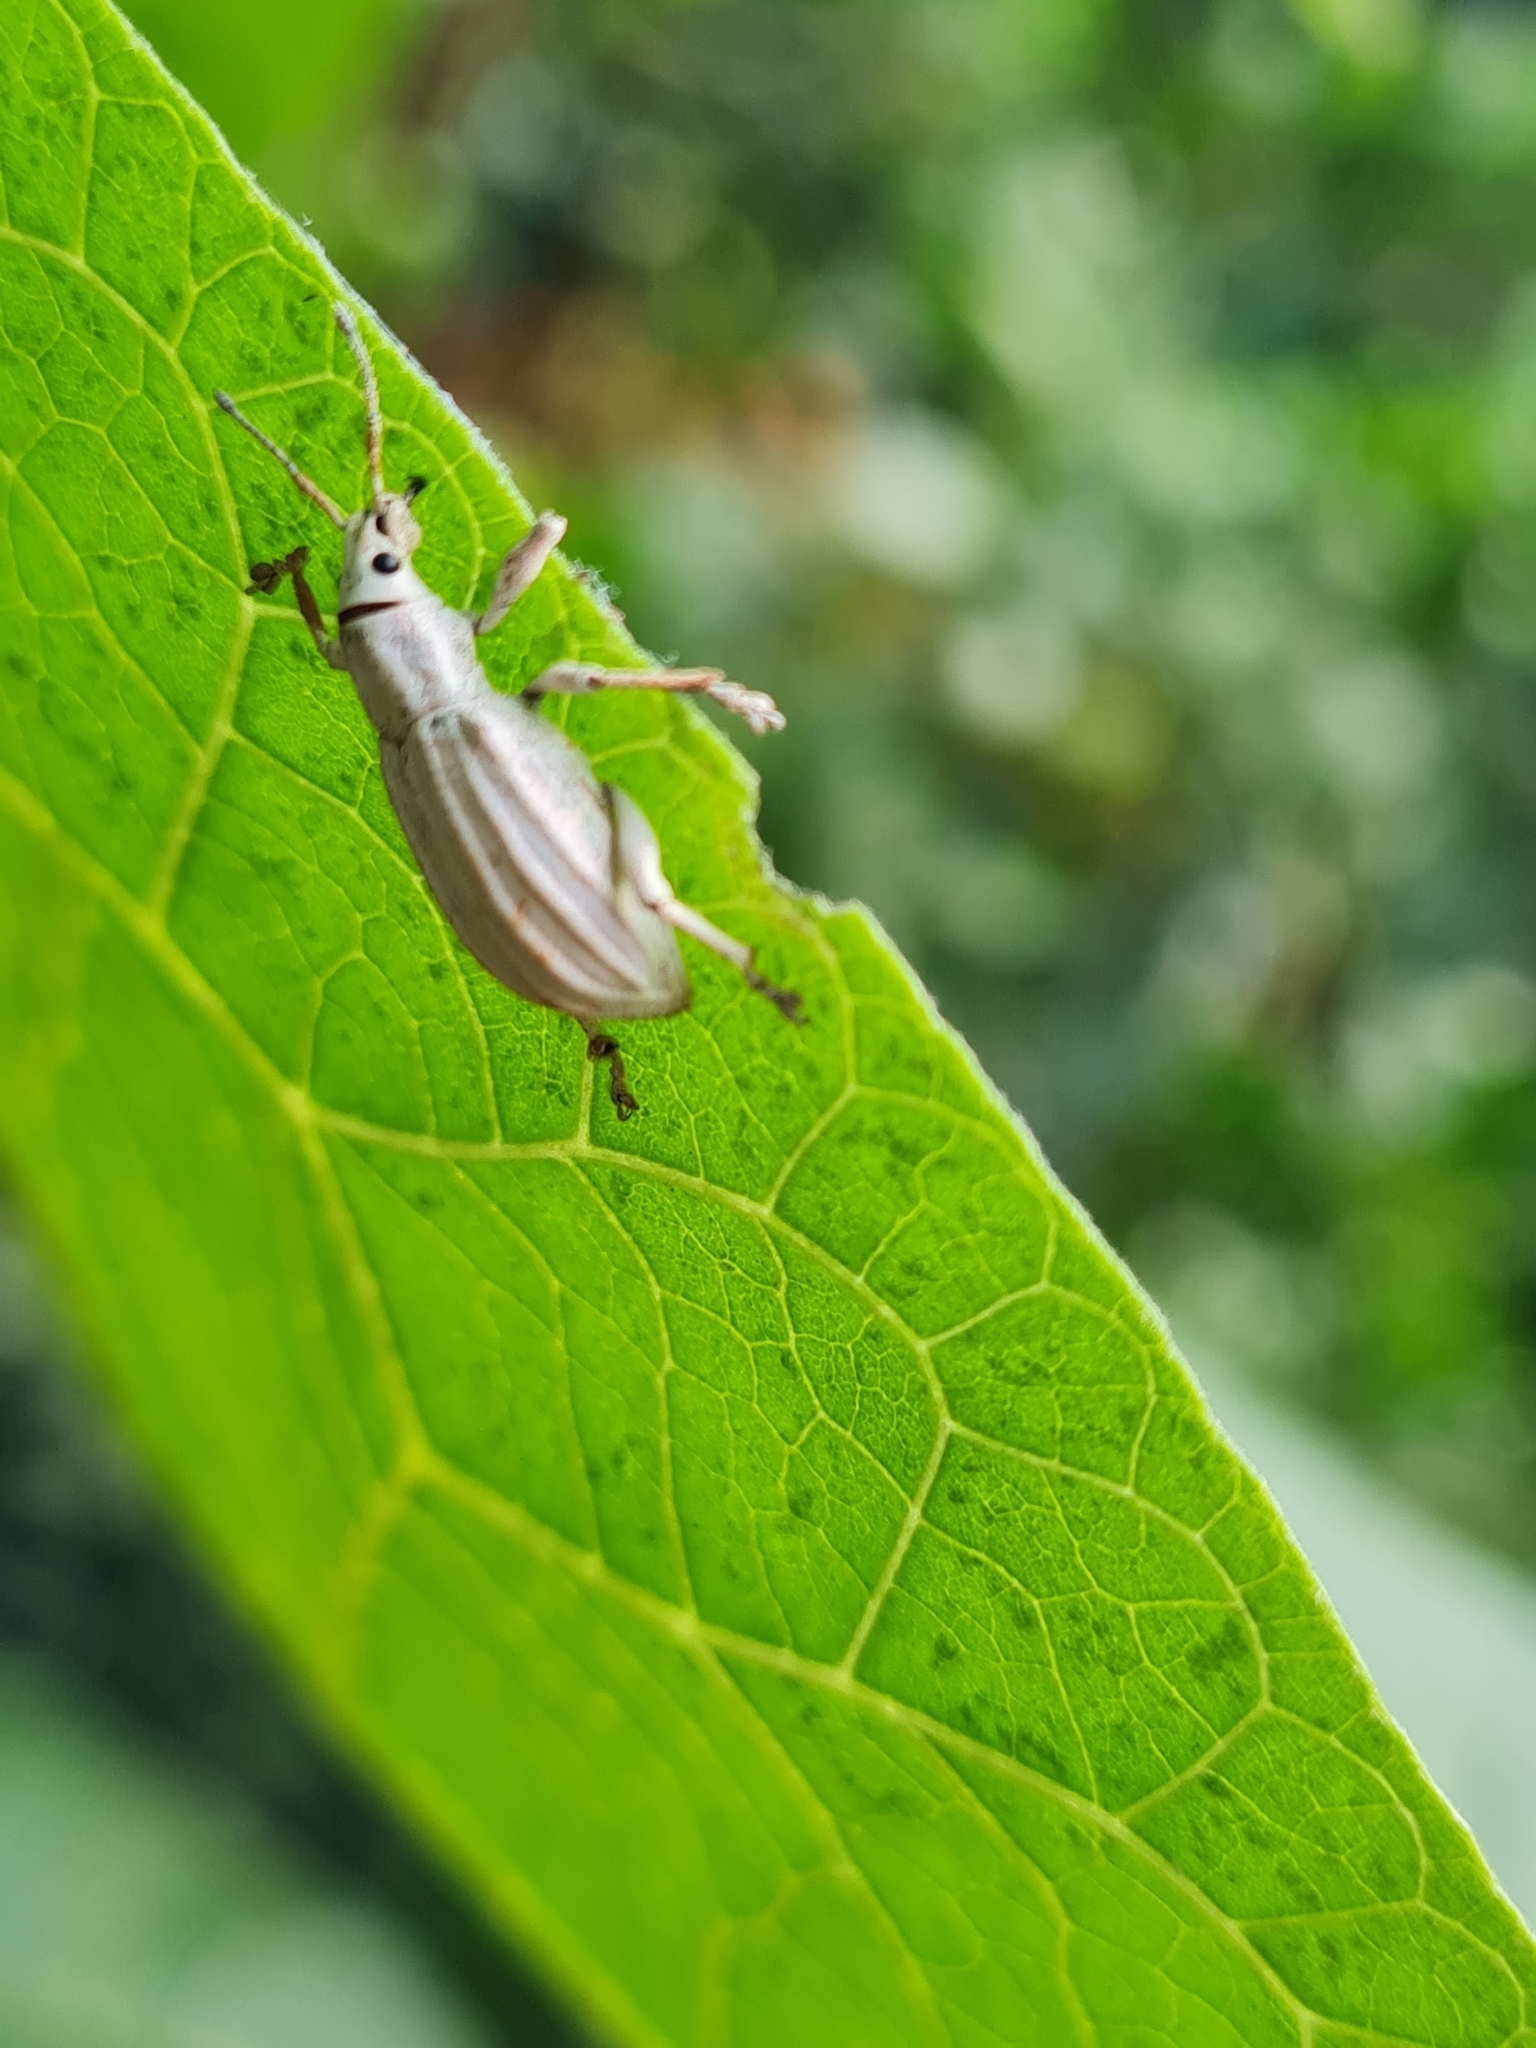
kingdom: Animalia
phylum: Arthropoda
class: Insecta
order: Coleoptera
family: Curculionidae
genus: Compsus
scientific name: Compsus auricephalus
